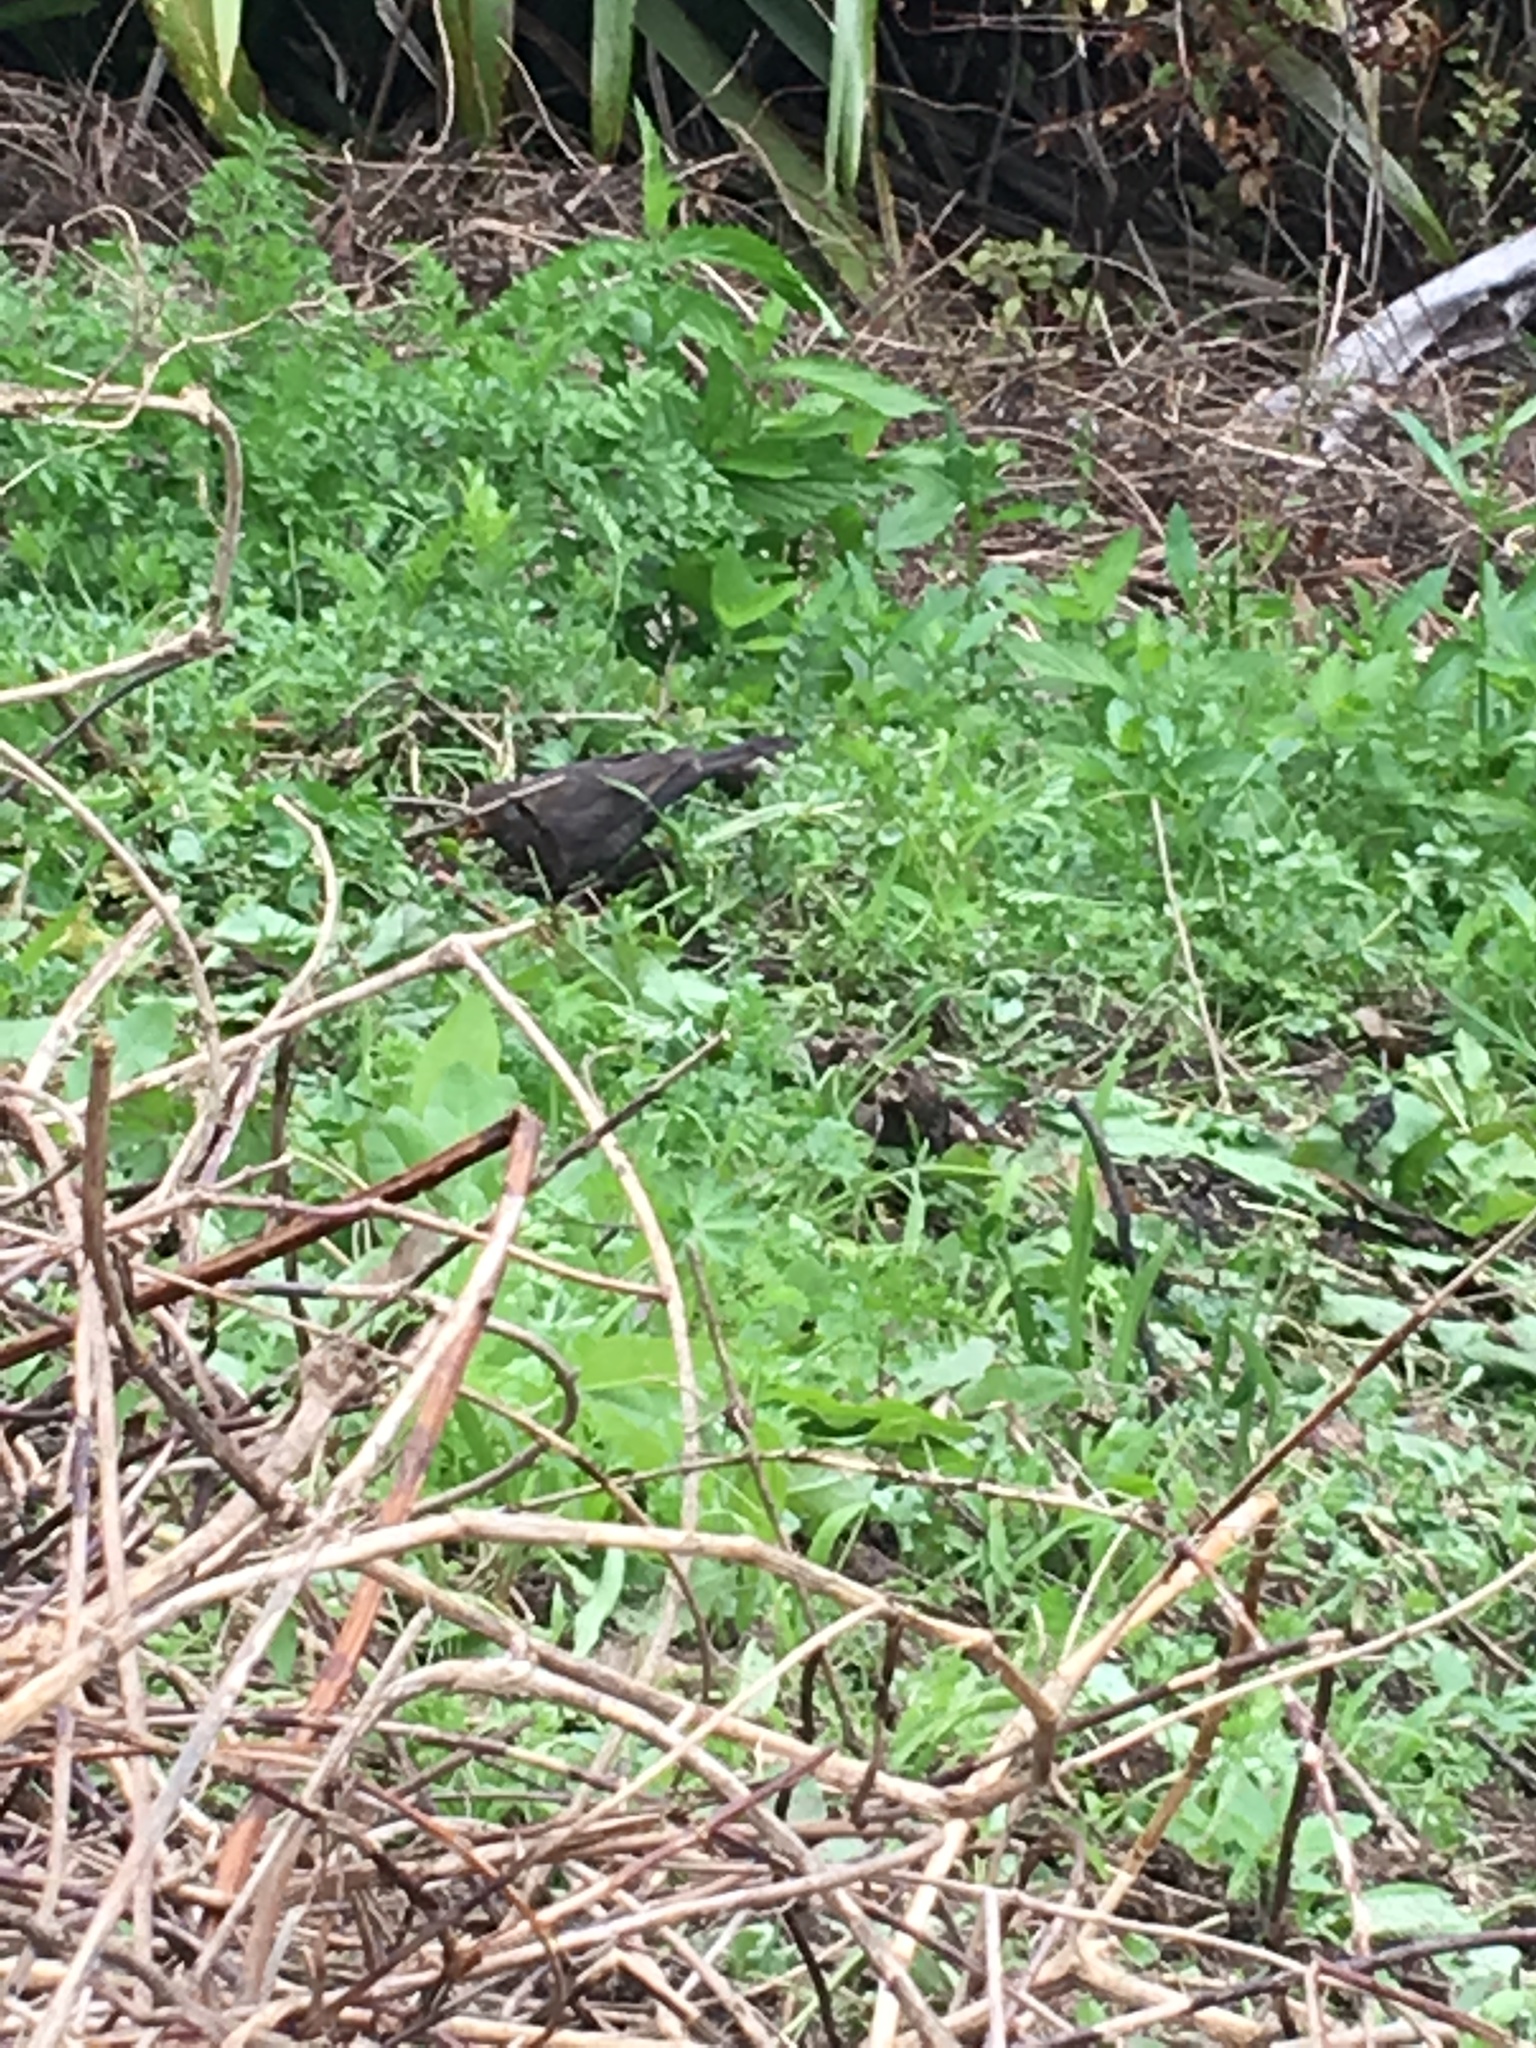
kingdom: Animalia
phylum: Chordata
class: Aves
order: Passeriformes
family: Turdidae
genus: Turdus
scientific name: Turdus merula
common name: Common blackbird
